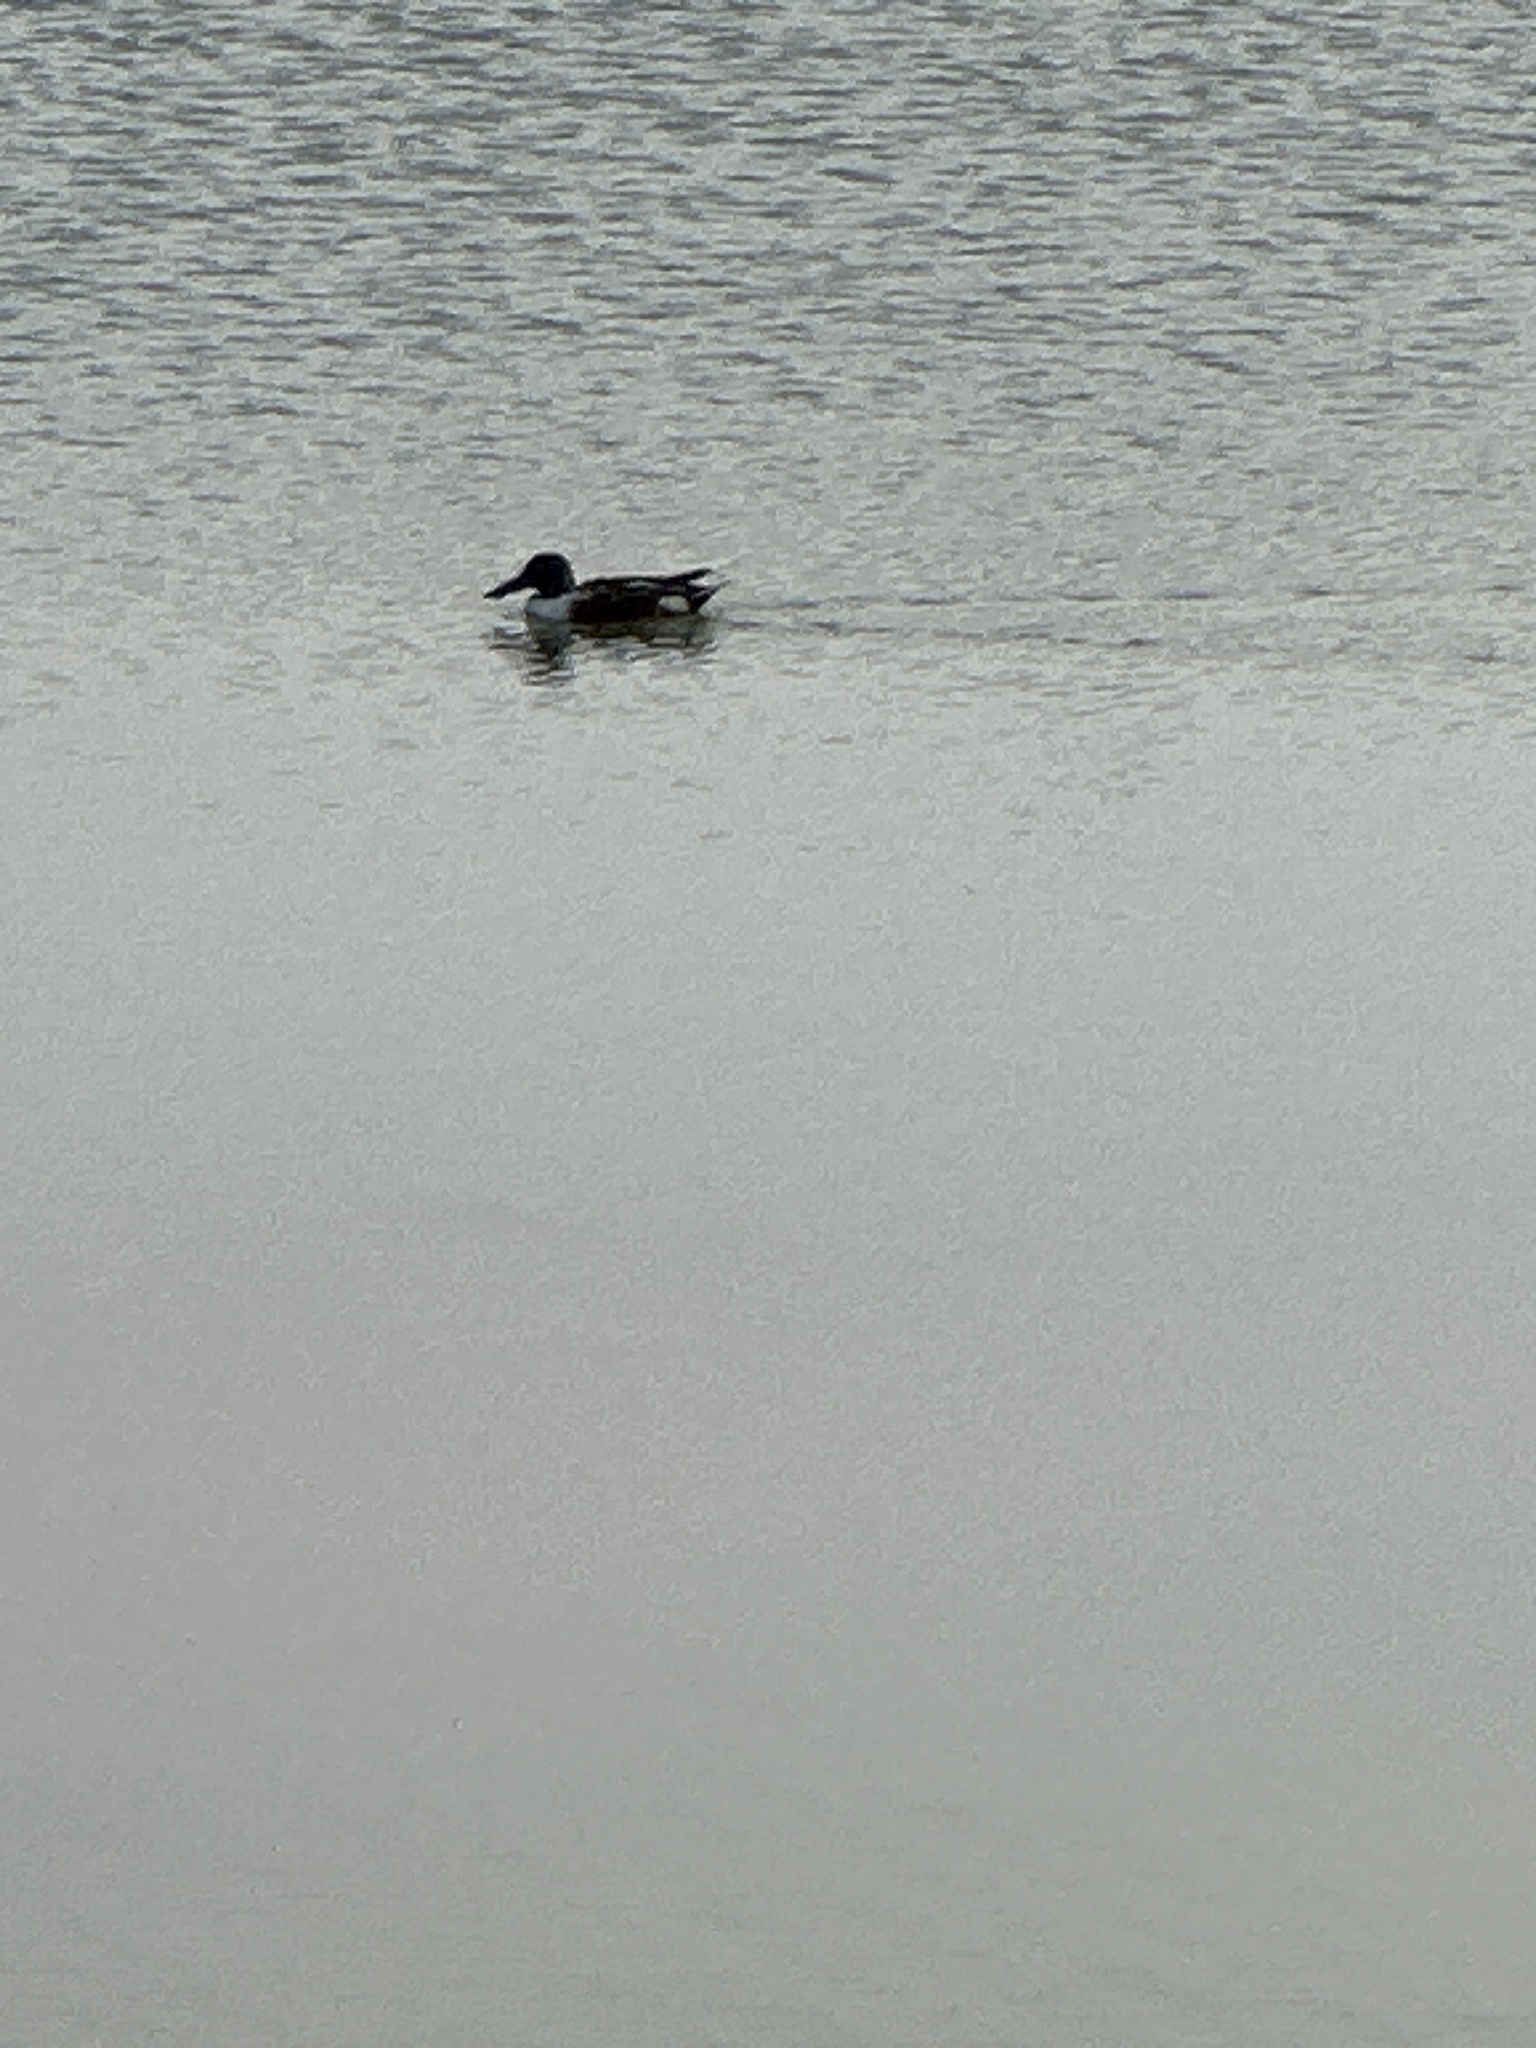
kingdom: Animalia
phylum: Chordata
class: Aves
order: Anseriformes
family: Anatidae
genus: Spatula
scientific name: Spatula clypeata
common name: Northern shoveler
